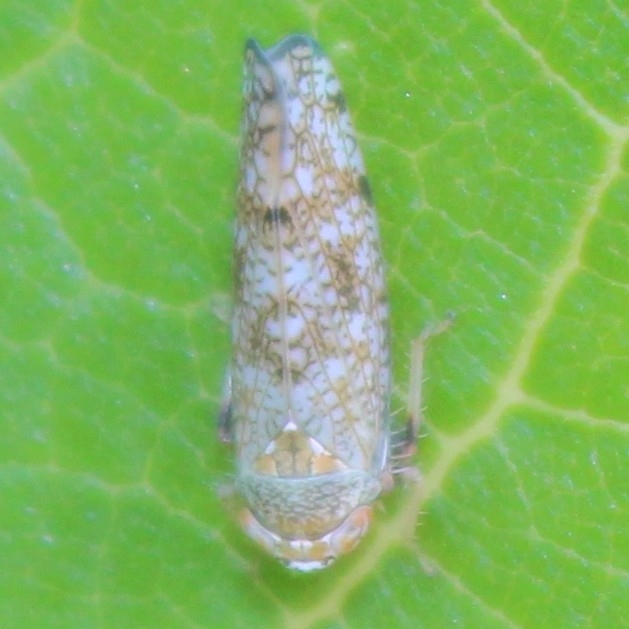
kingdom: Animalia
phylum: Arthropoda
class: Insecta
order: Hemiptera
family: Cicadellidae
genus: Orientus
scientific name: Orientus ishidae
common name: Japanese leafhopper
